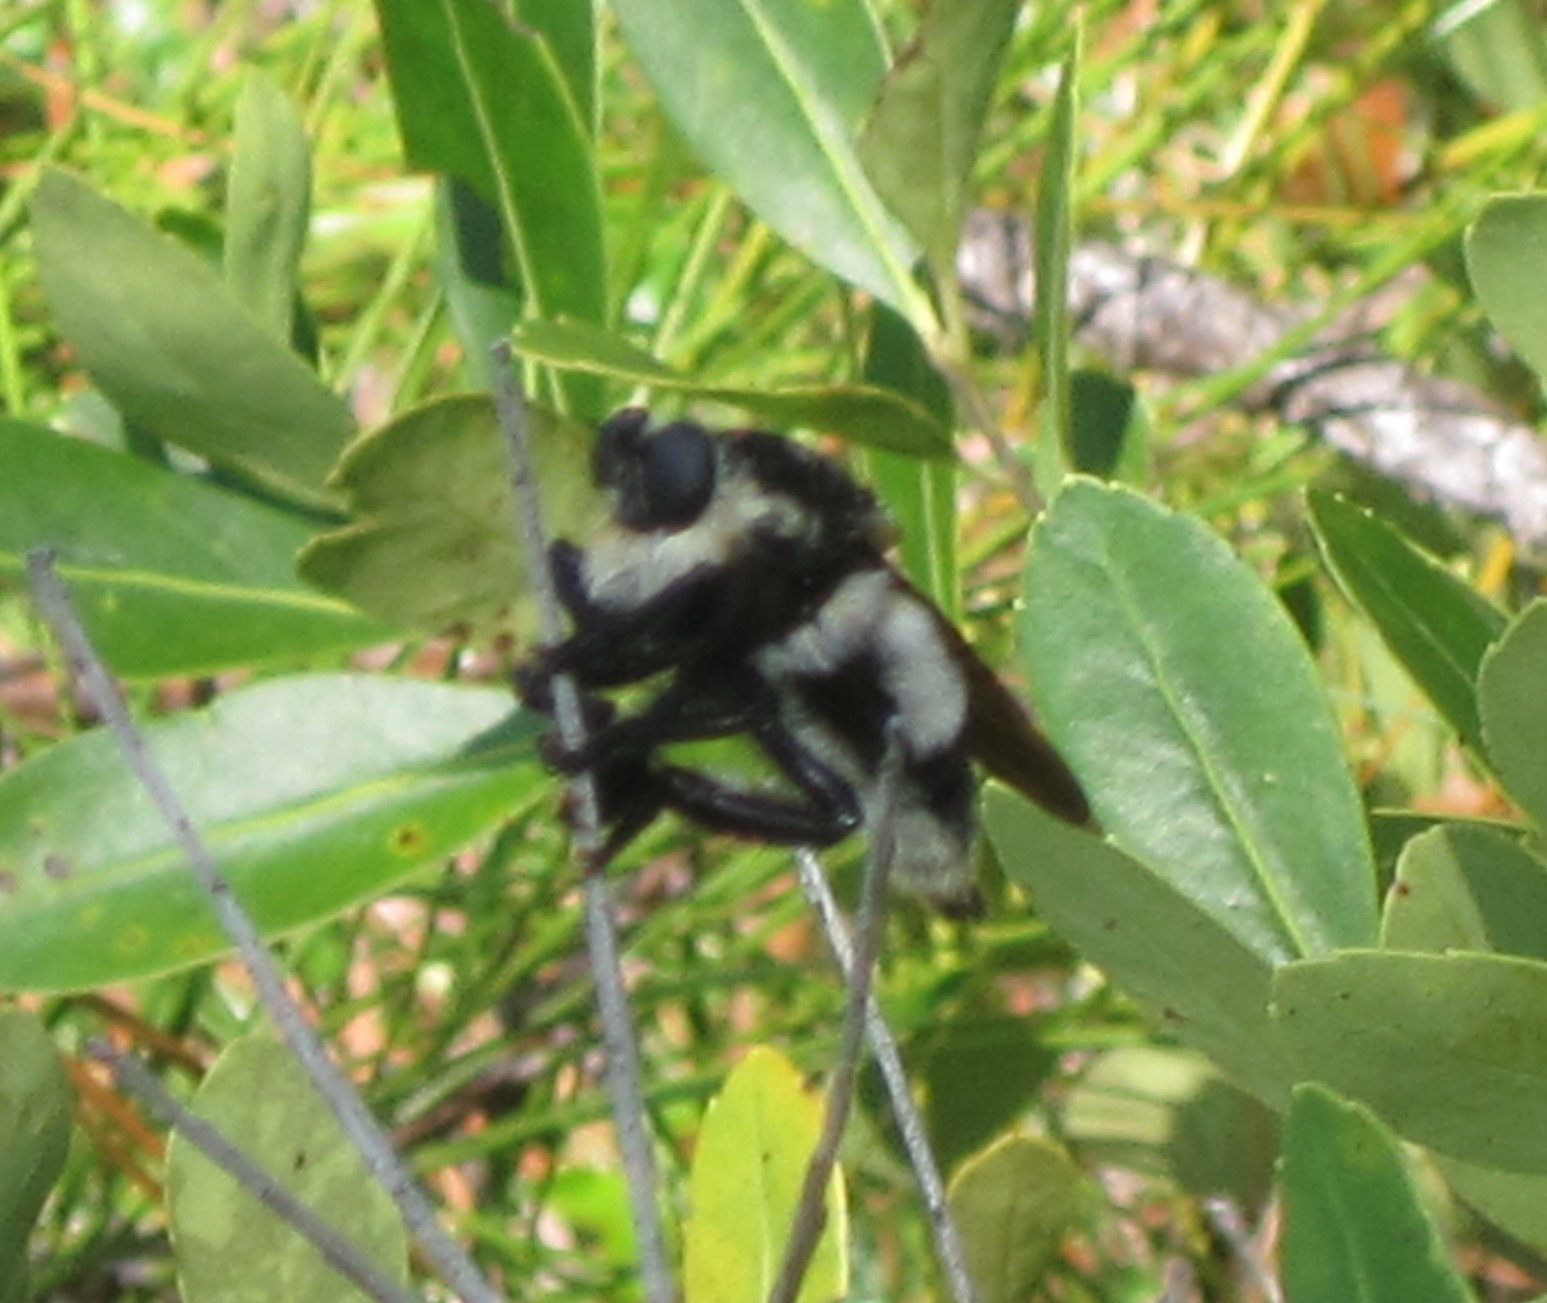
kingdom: Animalia
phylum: Arthropoda
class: Insecta
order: Diptera
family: Asilidae
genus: Mallophora
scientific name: Mallophora bomboides
